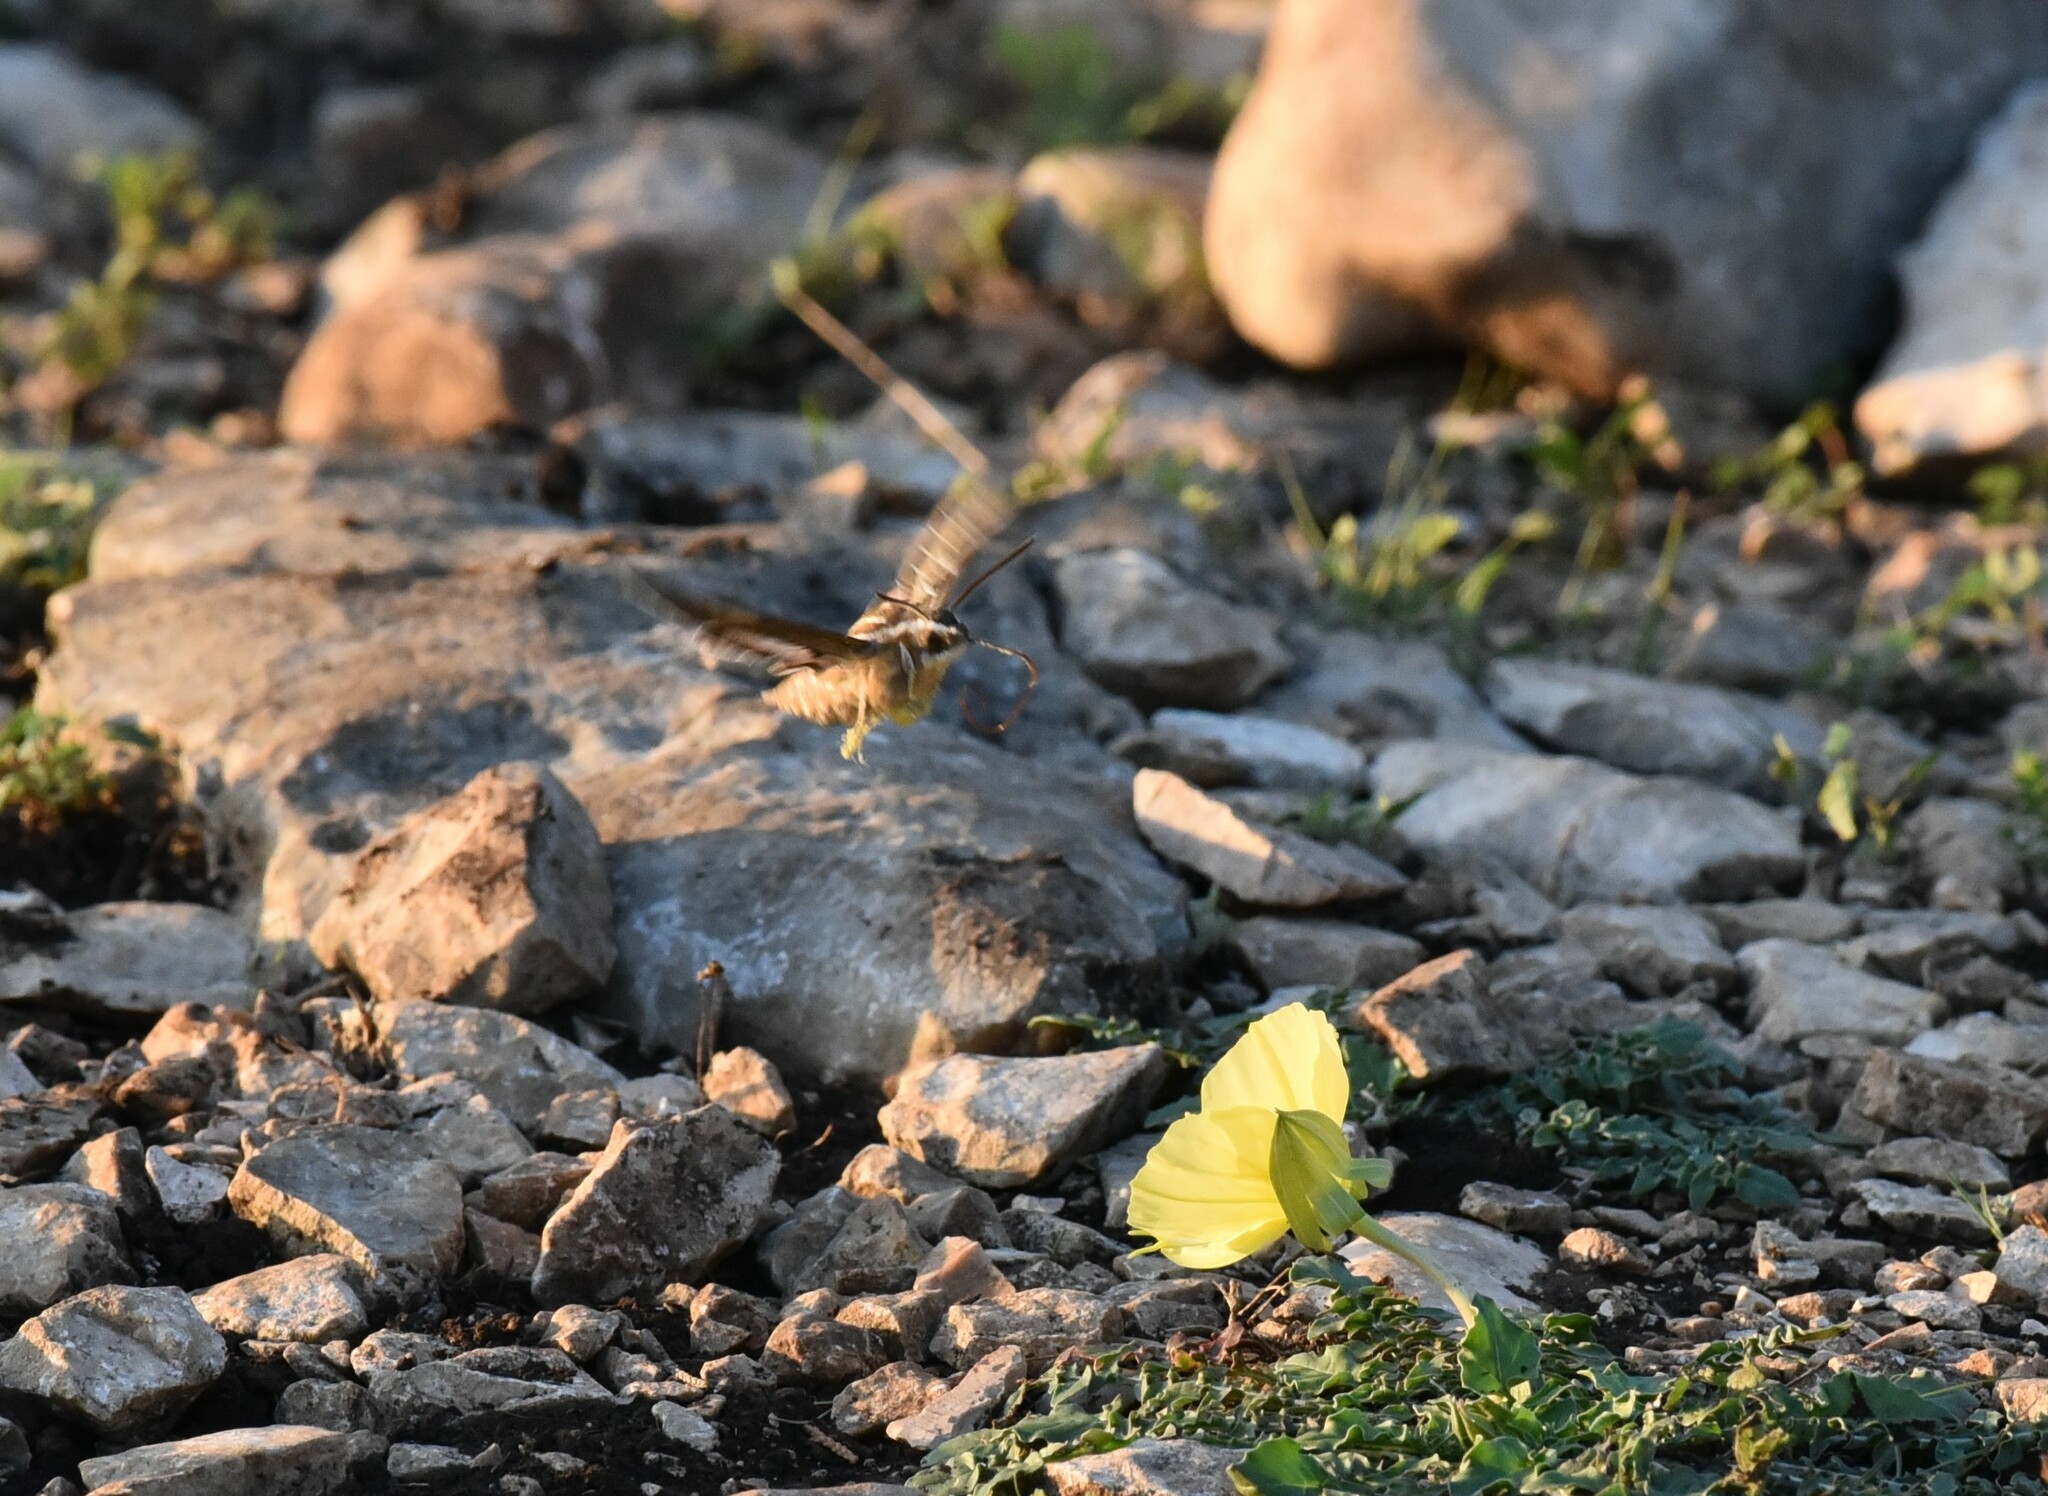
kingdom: Animalia
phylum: Arthropoda
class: Insecta
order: Lepidoptera
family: Sphingidae
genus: Hyles
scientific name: Hyles lineata
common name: White-lined sphinx
